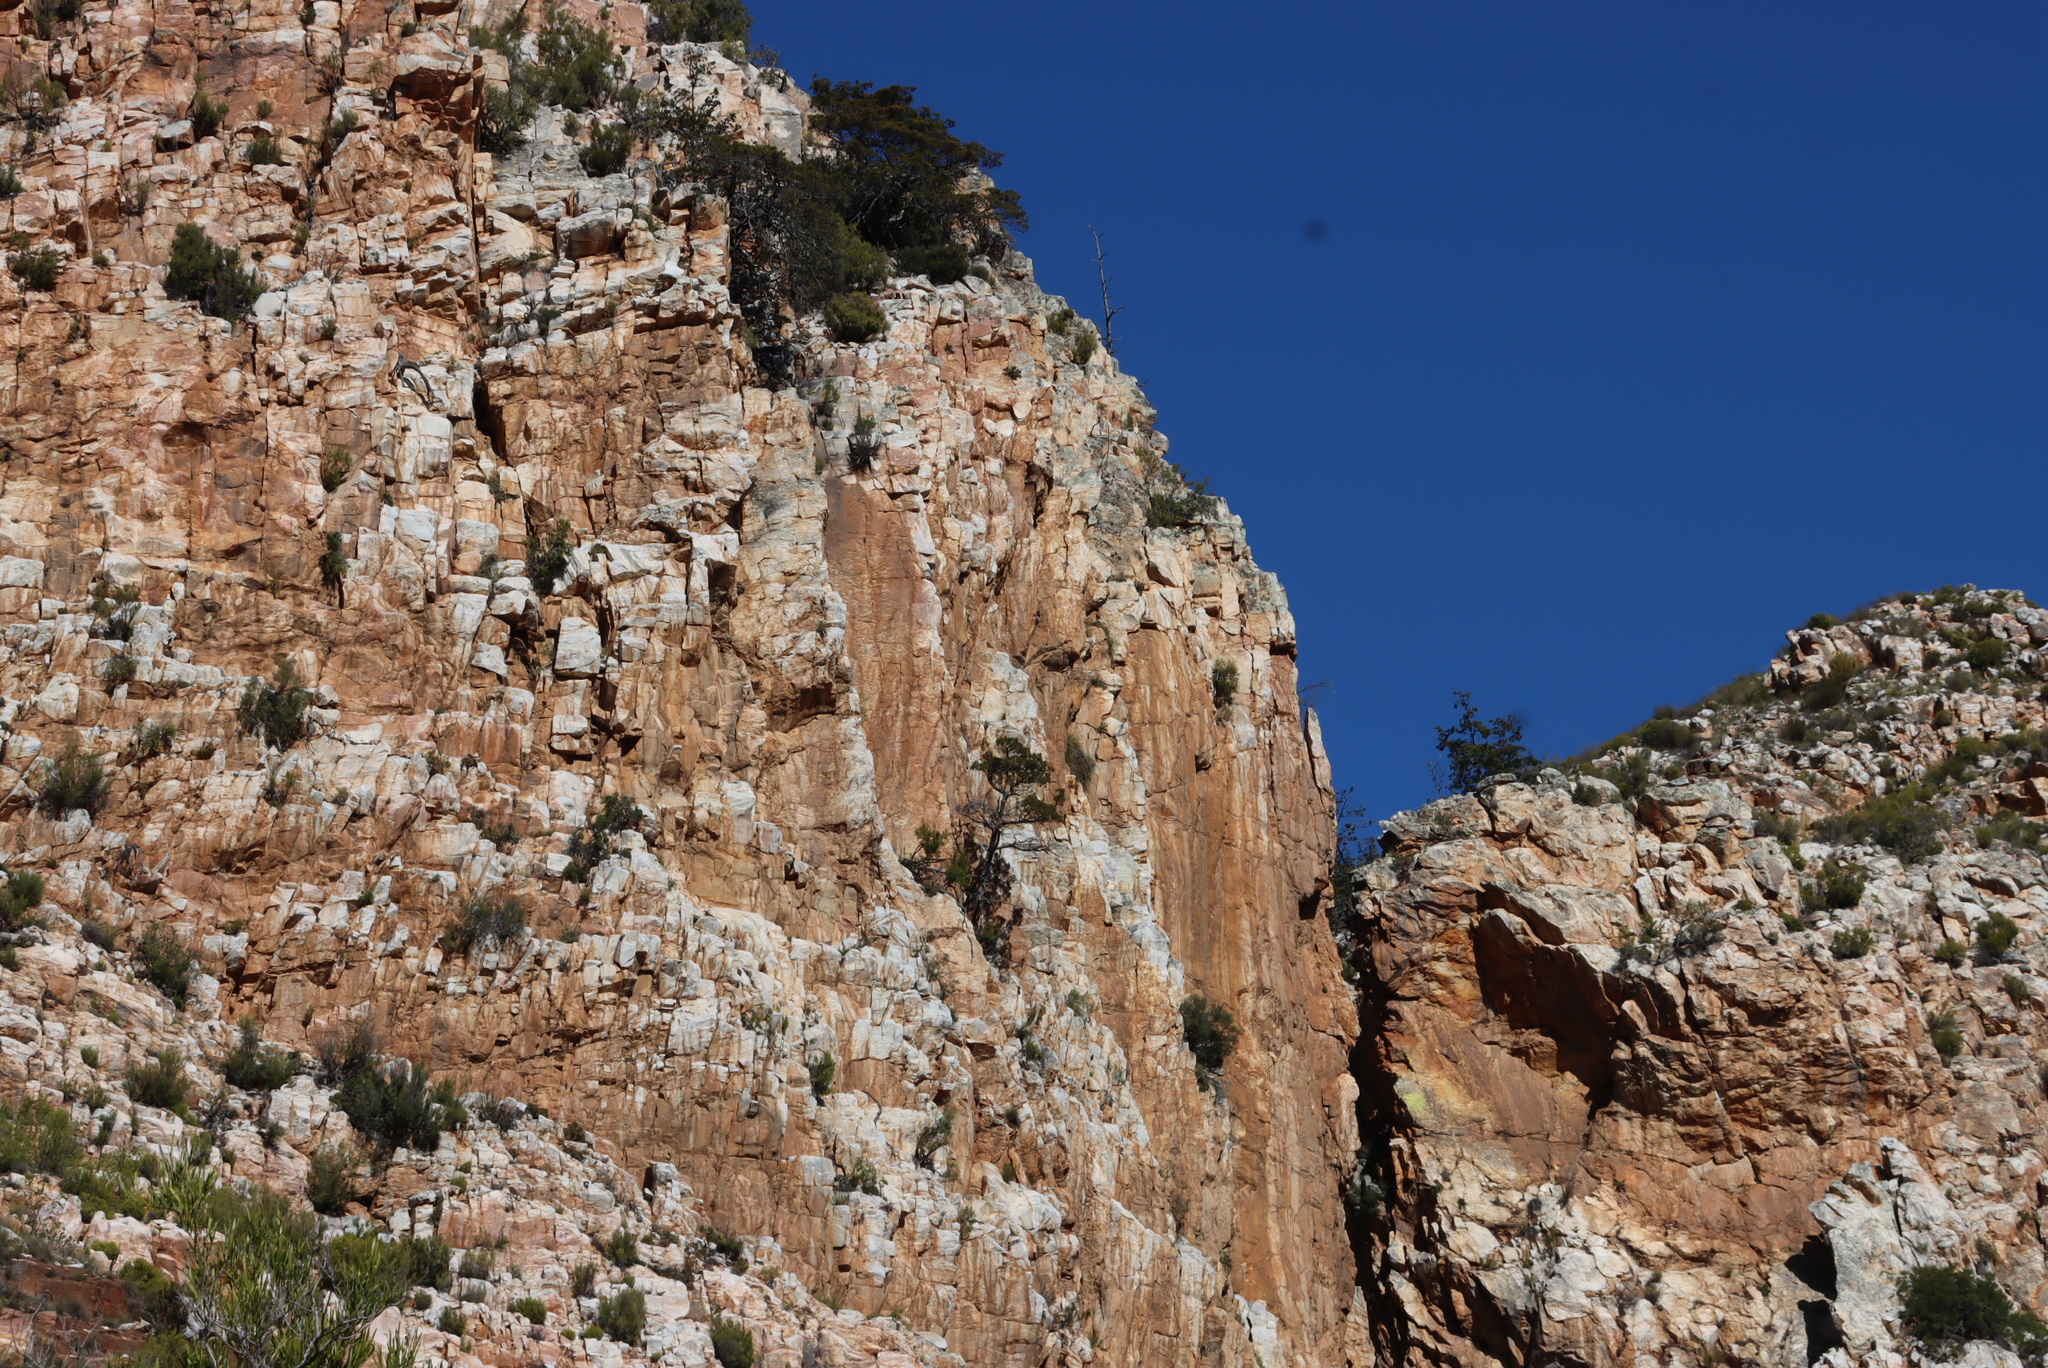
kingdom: Plantae
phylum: Tracheophyta
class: Pinopsida
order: Pinales
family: Cupressaceae
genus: Widdringtonia
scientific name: Widdringtonia schwarzii
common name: Baviaans cedar
